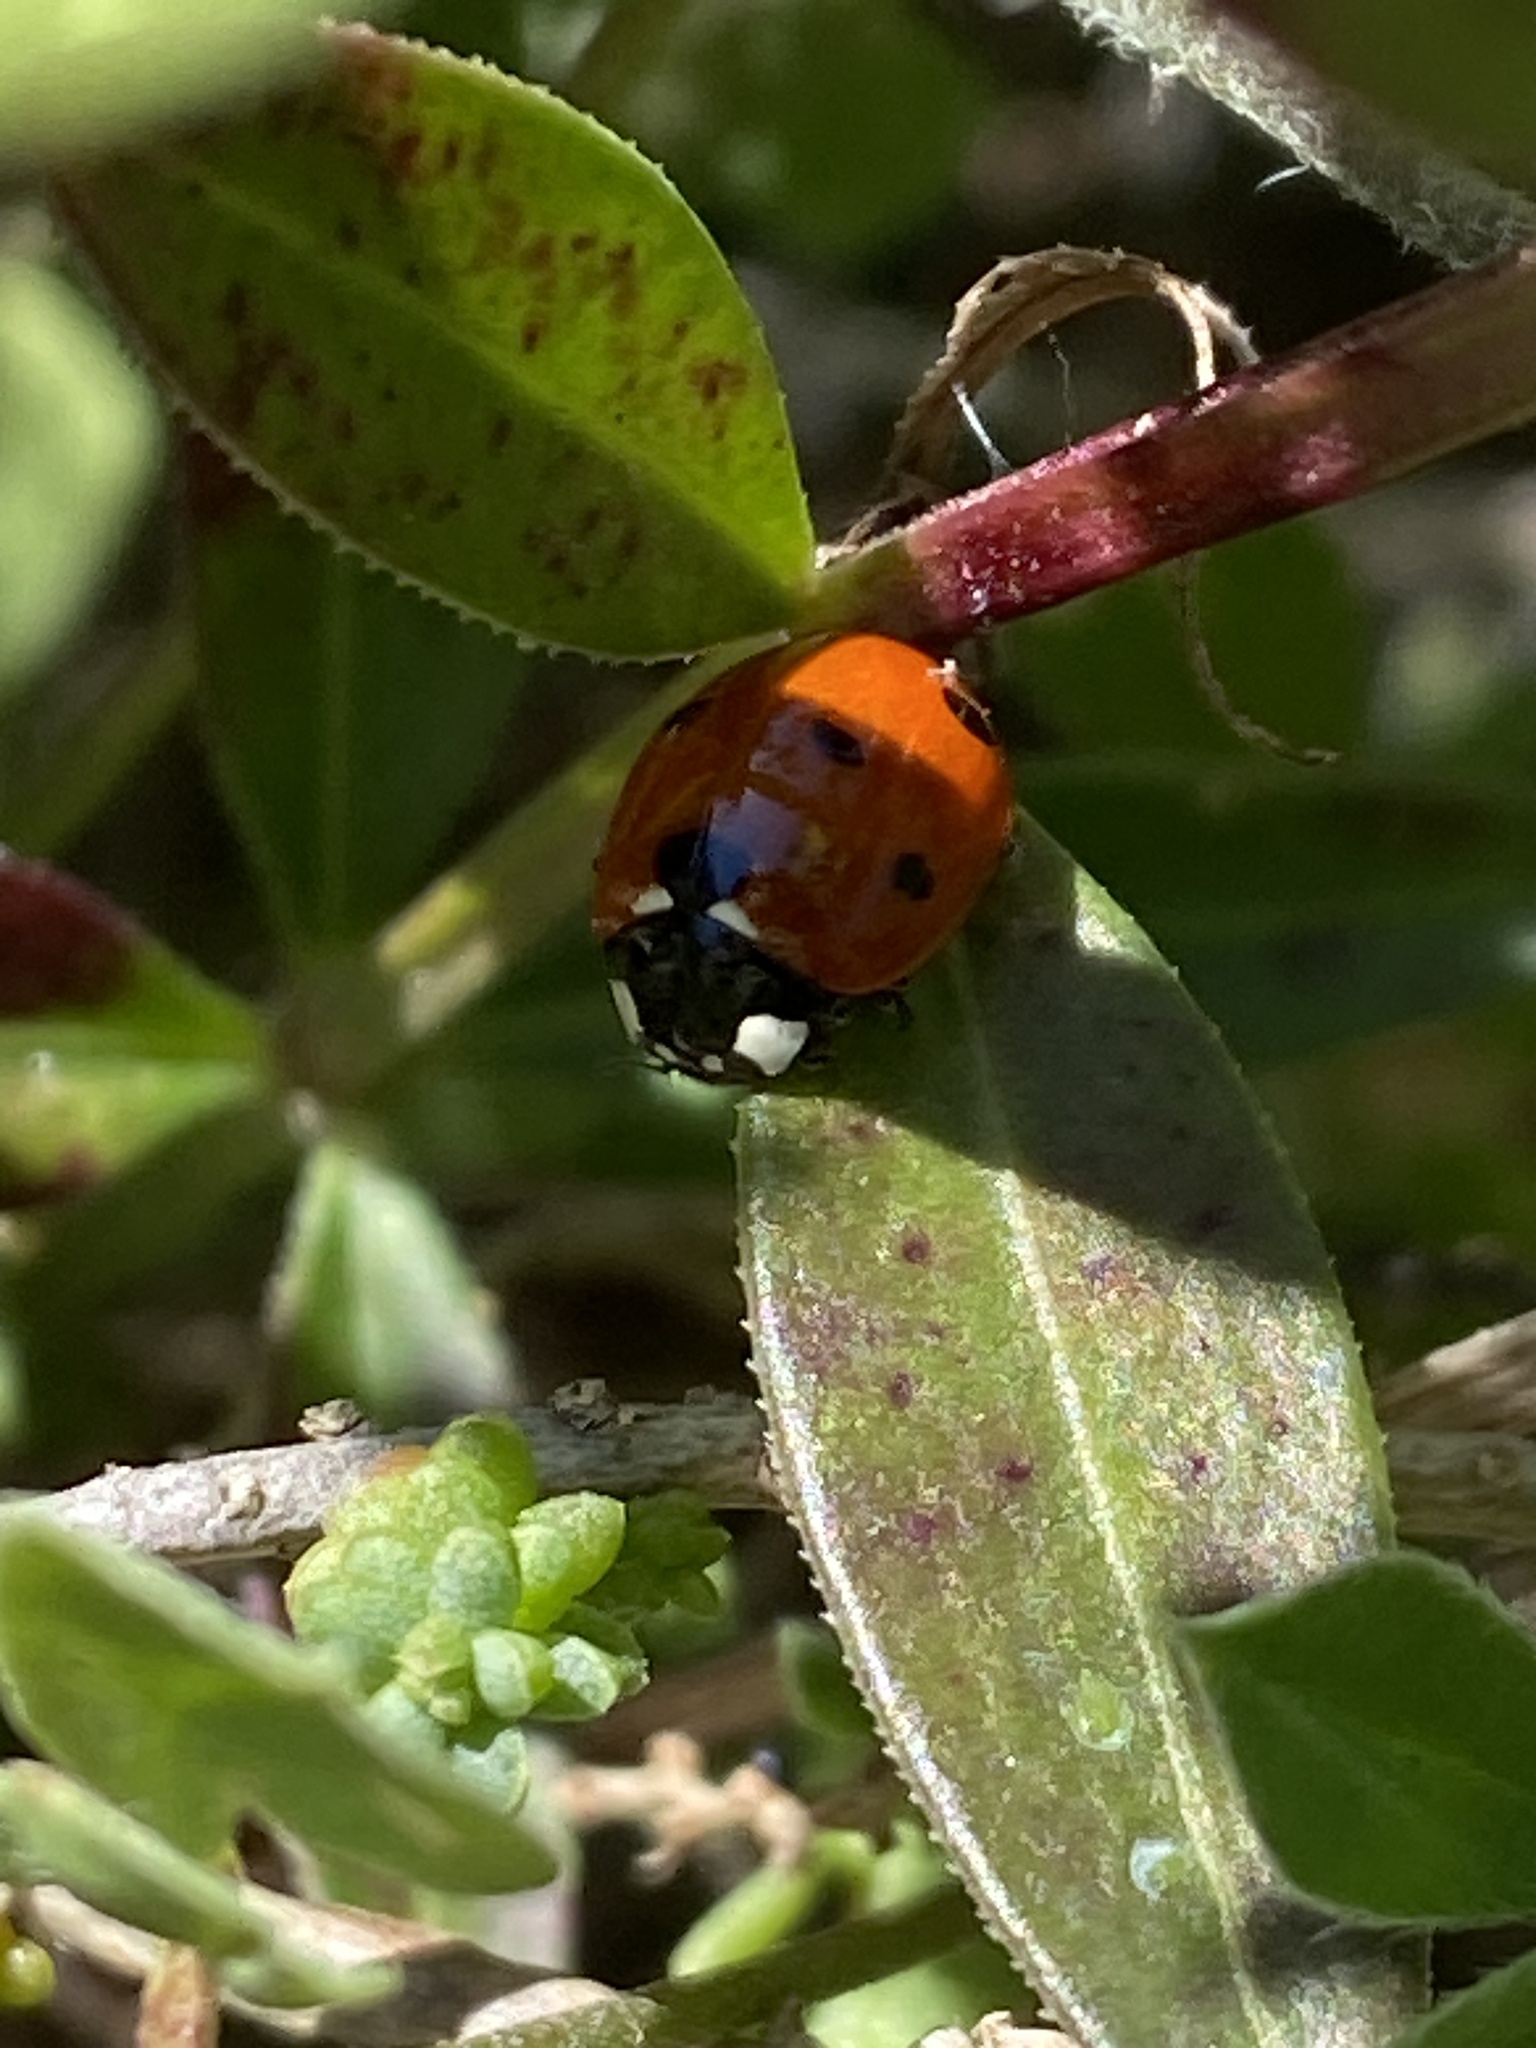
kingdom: Animalia
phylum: Arthropoda
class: Insecta
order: Coleoptera
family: Coccinellidae
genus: Coccinella
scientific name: Coccinella septempunctata
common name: Sevenspotted lady beetle
